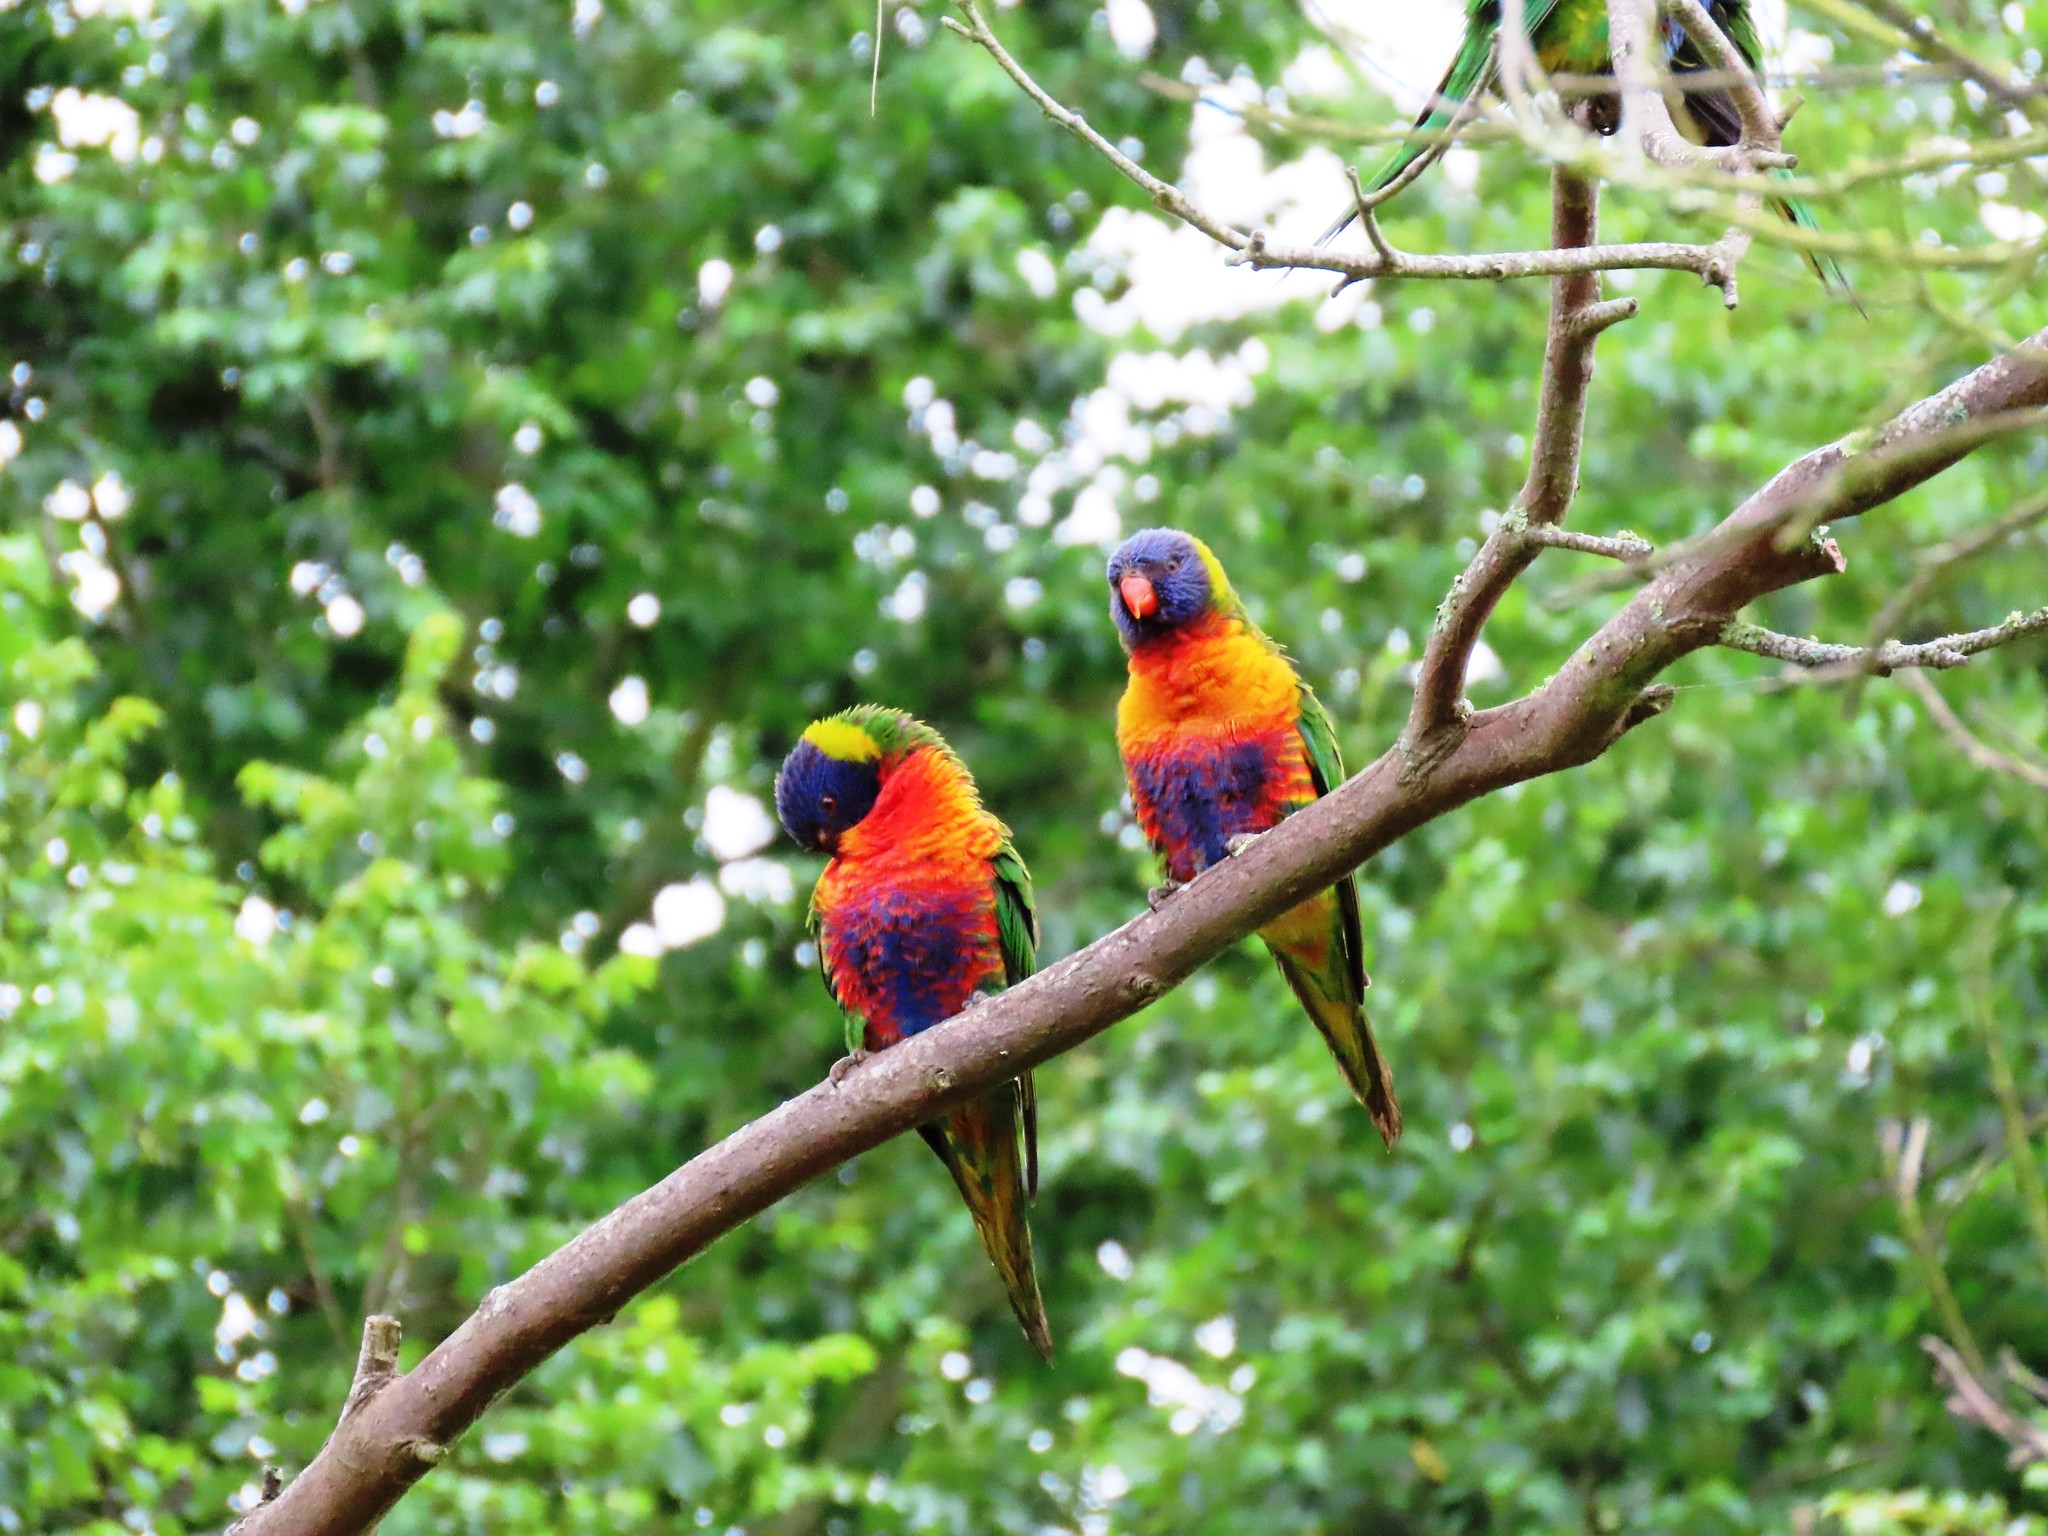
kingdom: Animalia
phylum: Chordata
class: Aves
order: Psittaciformes
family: Psittacidae
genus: Trichoglossus
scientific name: Trichoglossus haematodus
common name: Coconut lorikeet
